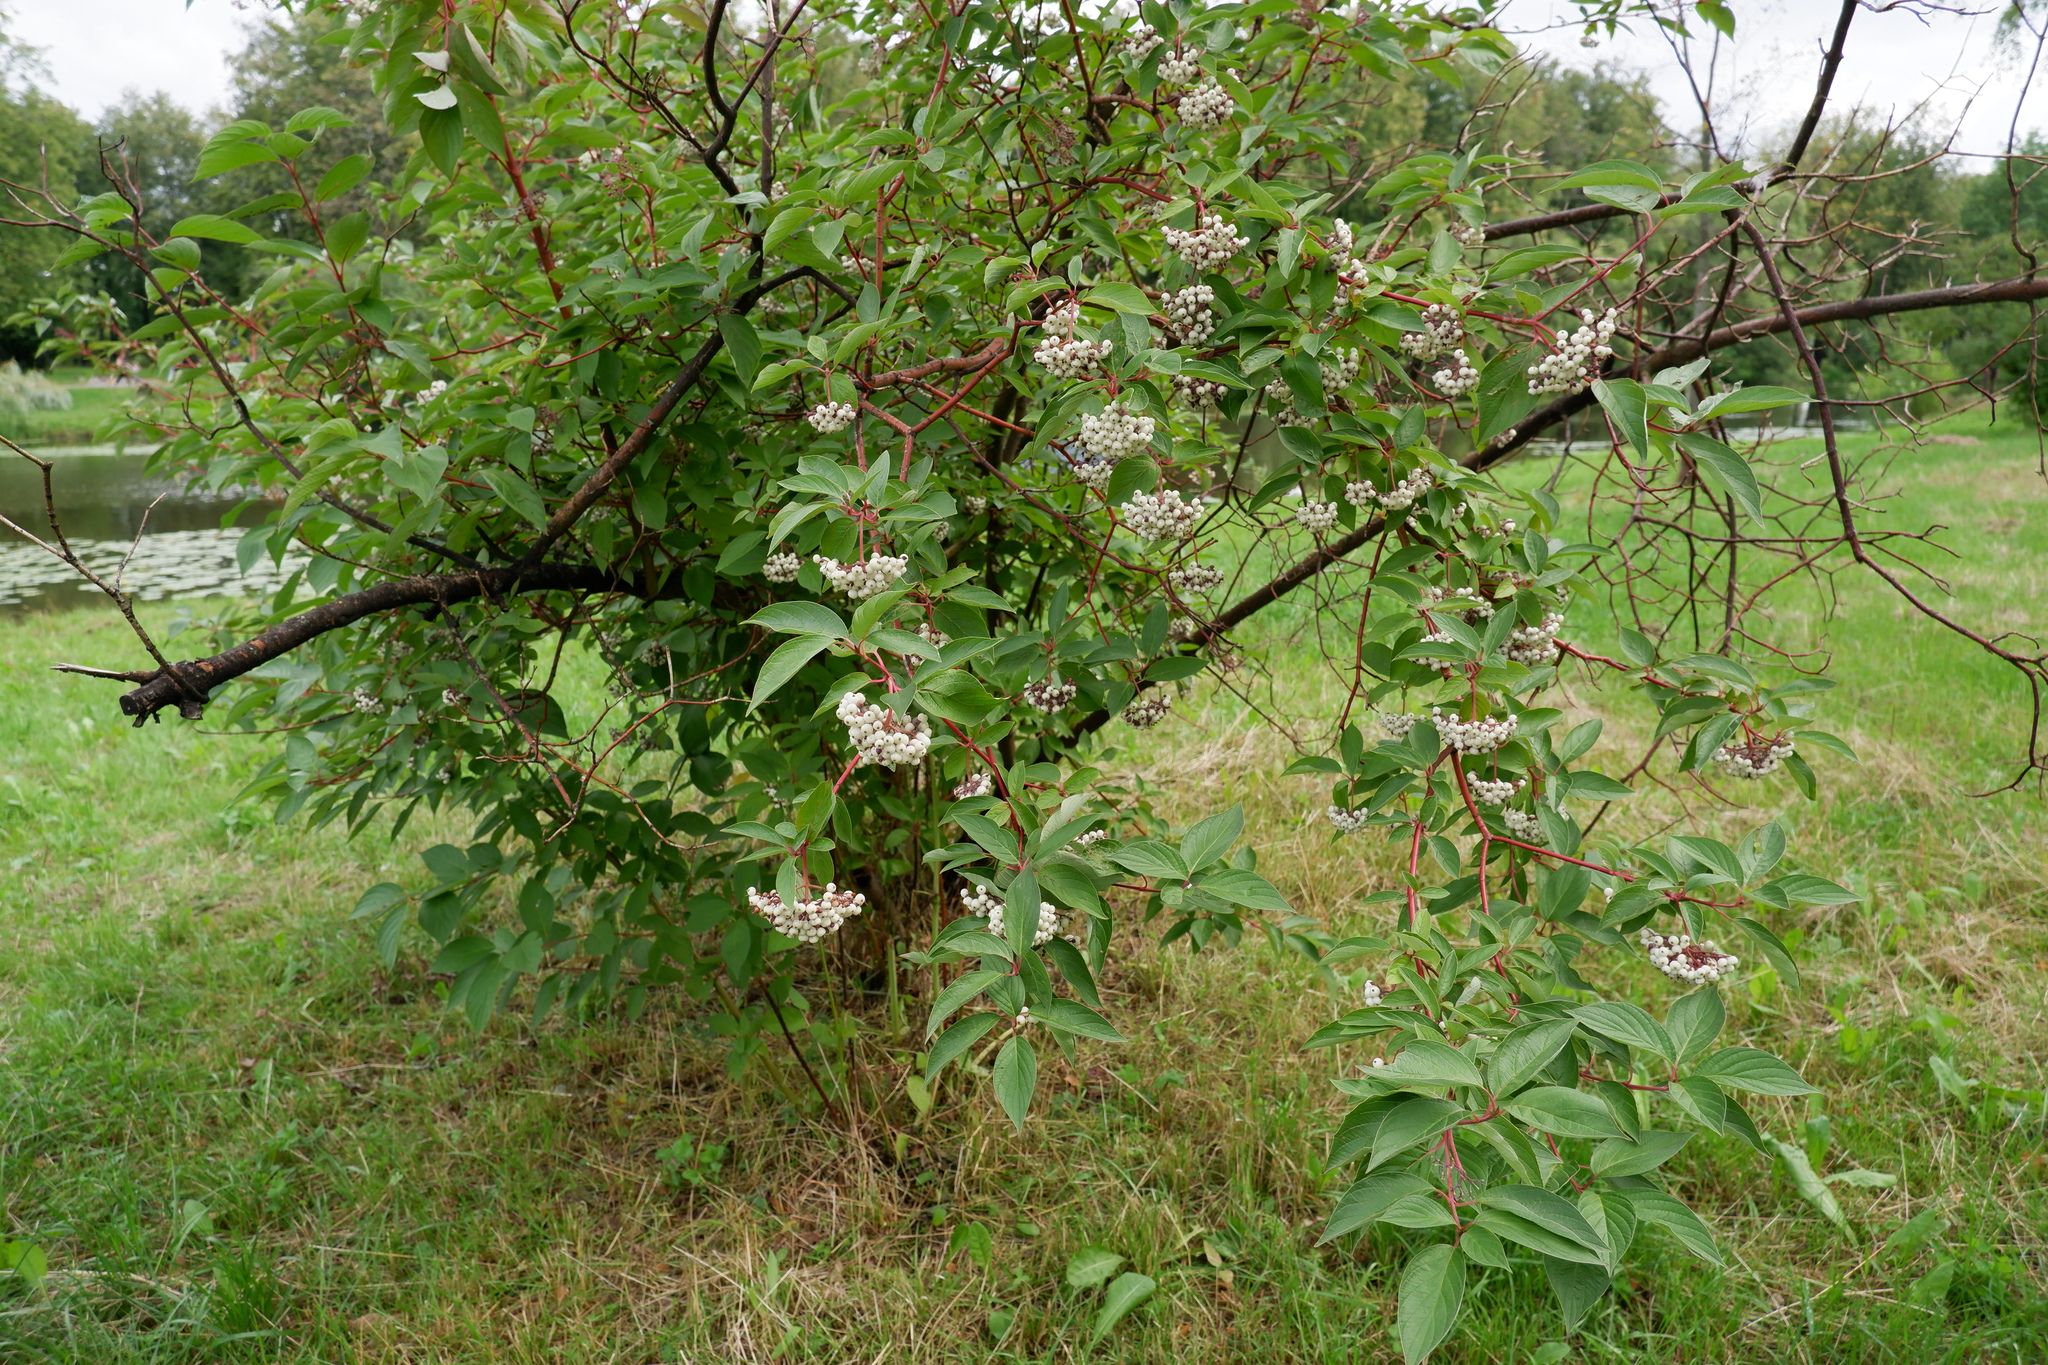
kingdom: Plantae
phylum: Tracheophyta
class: Magnoliopsida
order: Cornales
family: Cornaceae
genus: Cornus
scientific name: Cornus alba
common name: White dogwood
